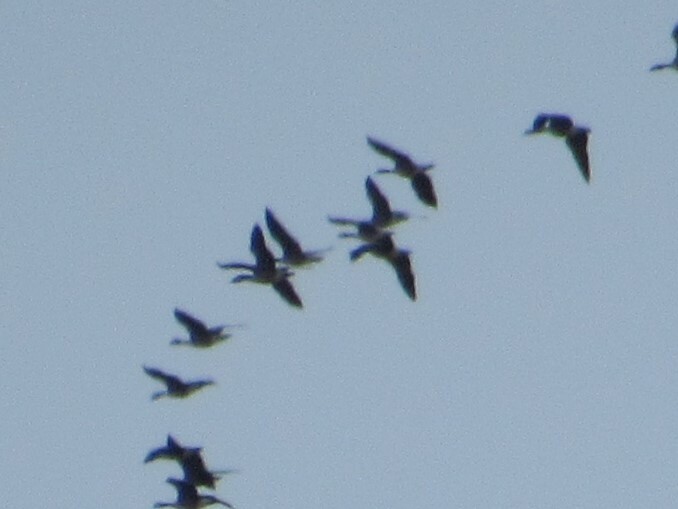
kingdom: Animalia
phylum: Chordata
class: Aves
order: Anseriformes
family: Anatidae
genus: Branta
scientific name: Branta canadensis
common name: Canada goose
